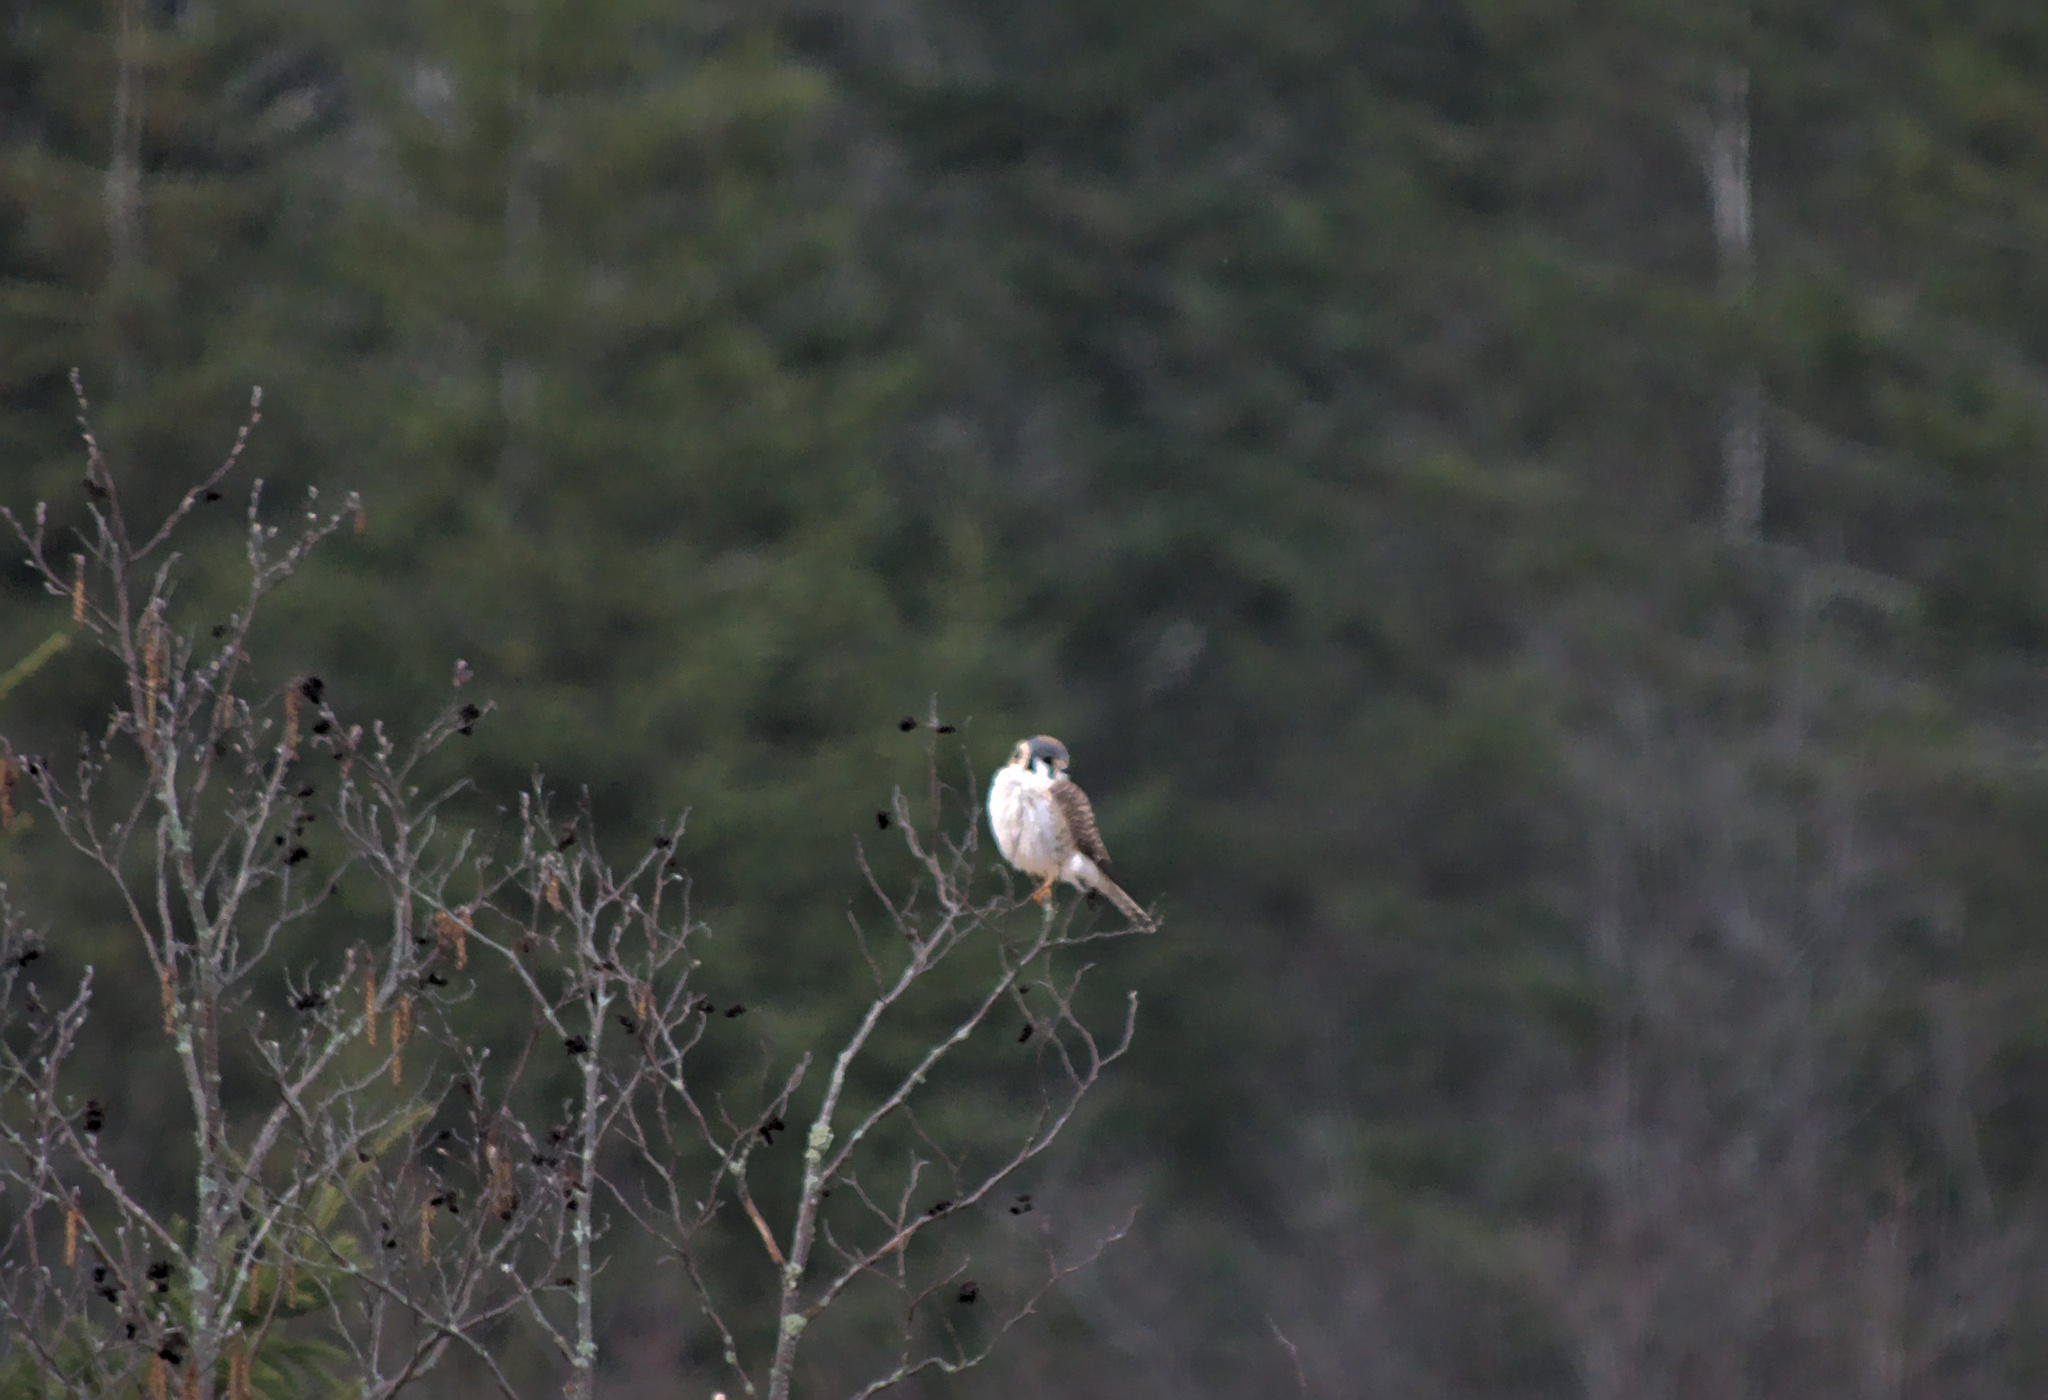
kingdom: Animalia
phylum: Chordata
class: Aves
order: Falconiformes
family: Falconidae
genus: Falco
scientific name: Falco sparverius
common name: American kestrel
